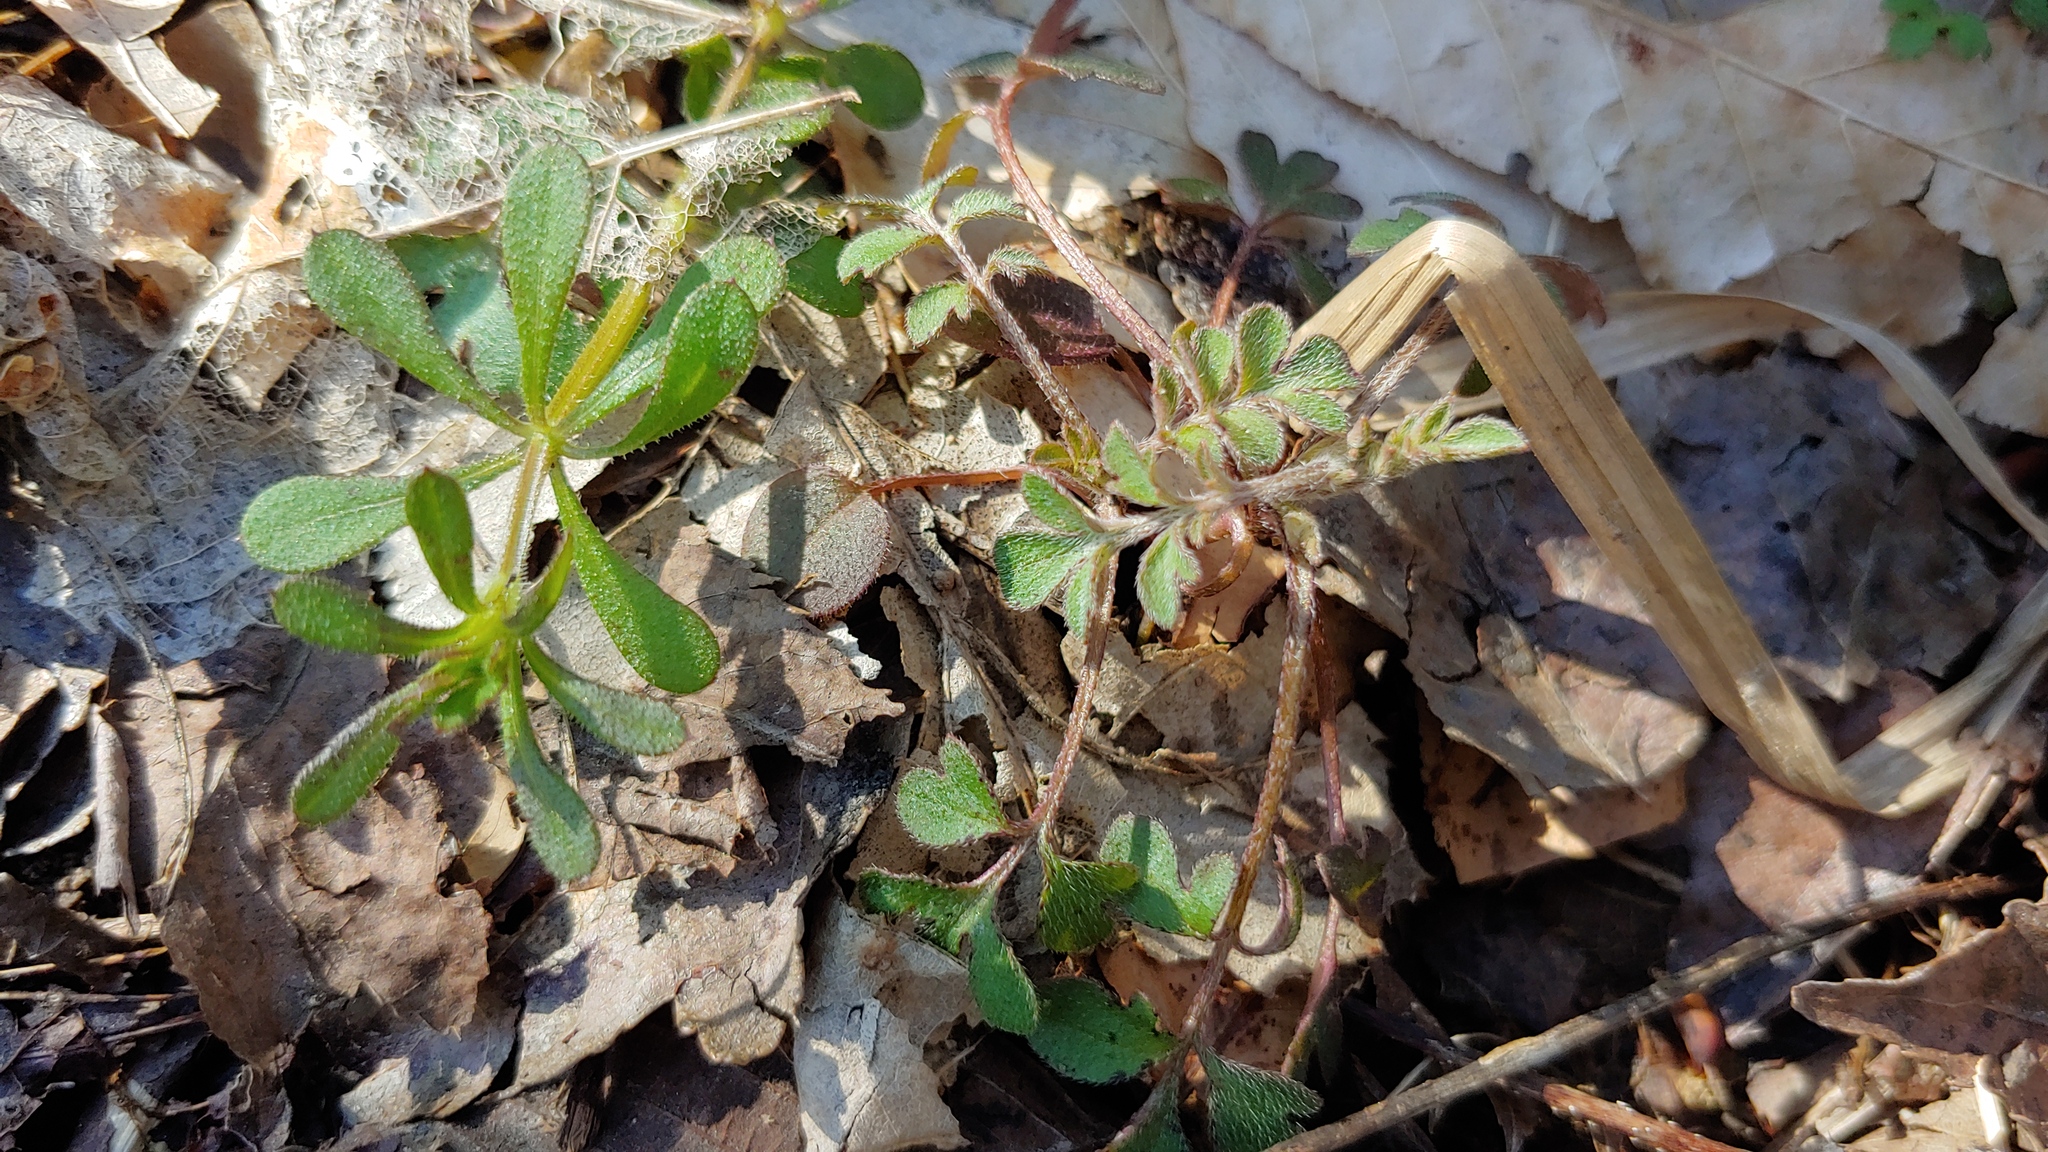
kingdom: Plantae
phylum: Tracheophyta
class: Magnoliopsida
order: Boraginales
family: Hydrophyllaceae
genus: Phacelia
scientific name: Phacelia covillei
